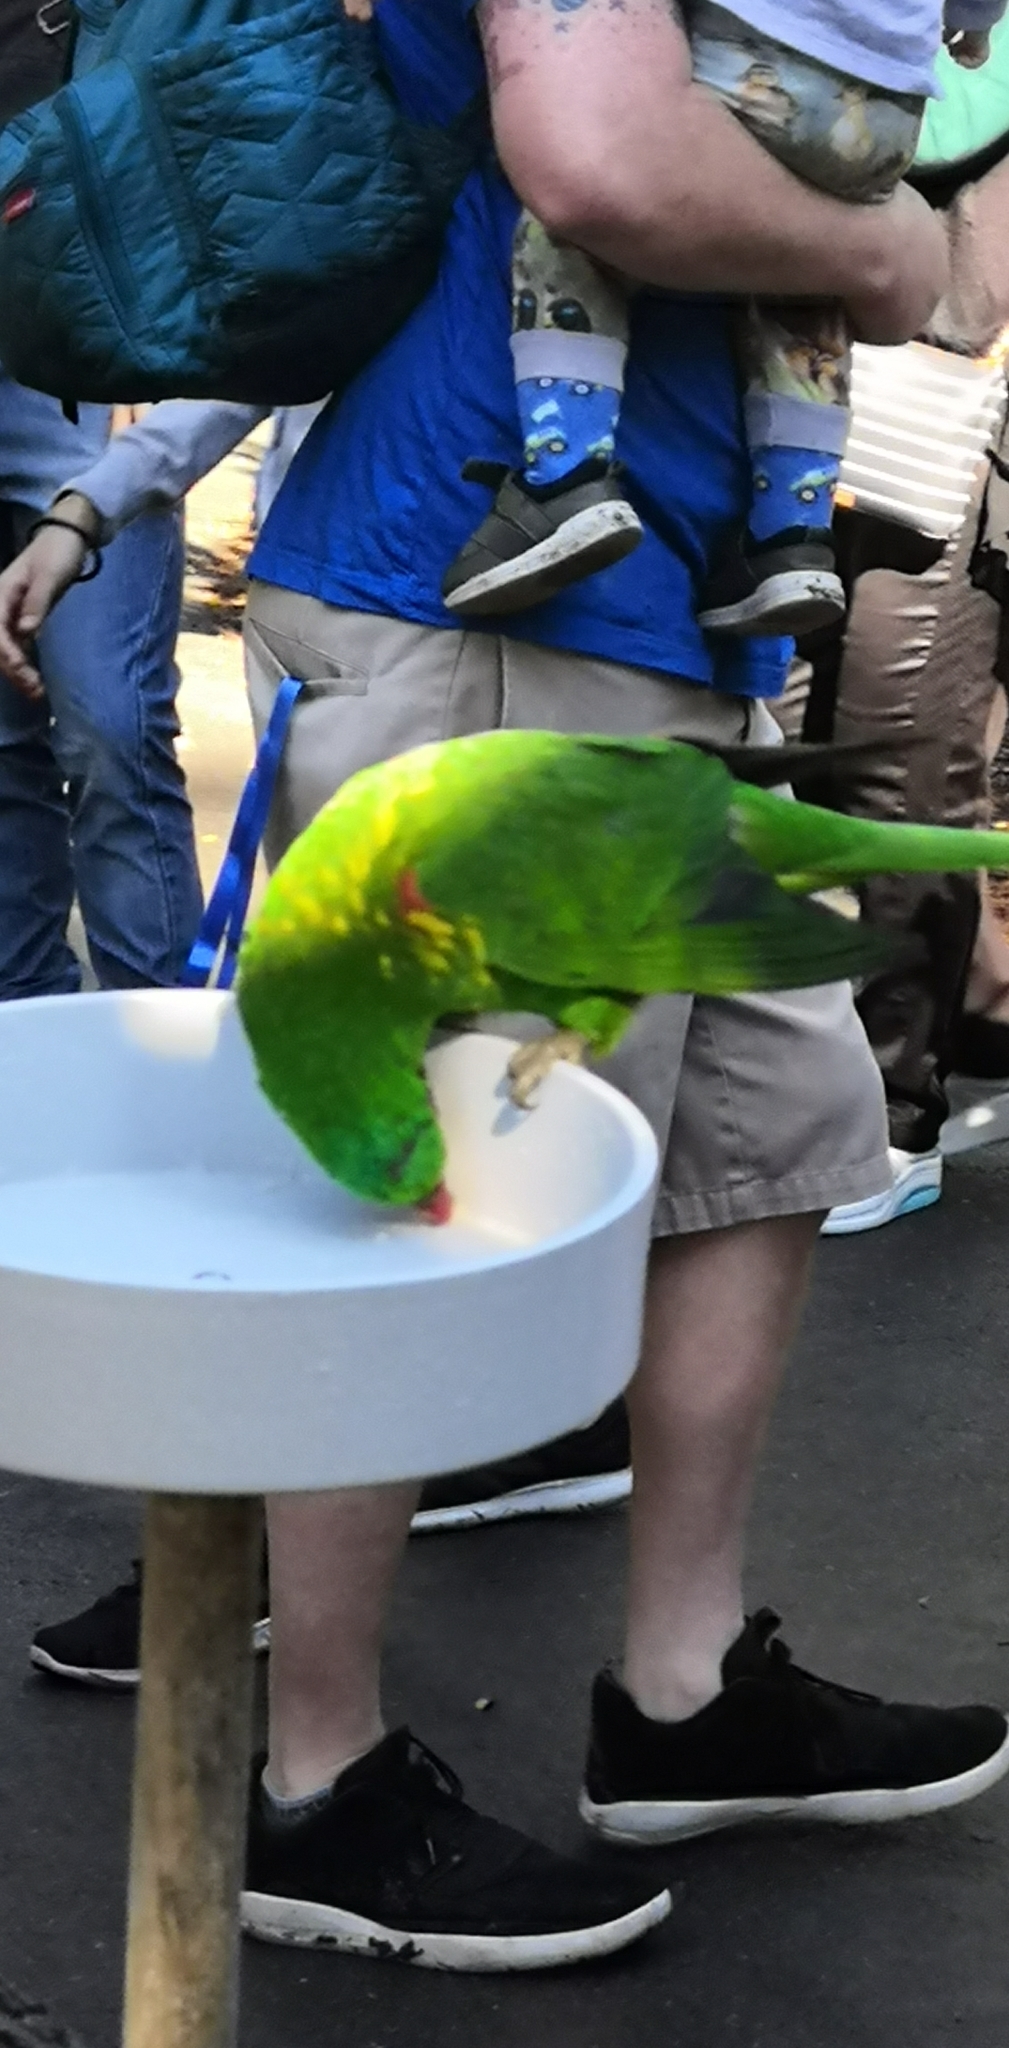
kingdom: Animalia
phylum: Chordata
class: Aves
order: Psittaciformes
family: Psittacidae
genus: Trichoglossus
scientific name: Trichoglossus chlorolepidotus
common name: Scaly-breasted lorikeet
